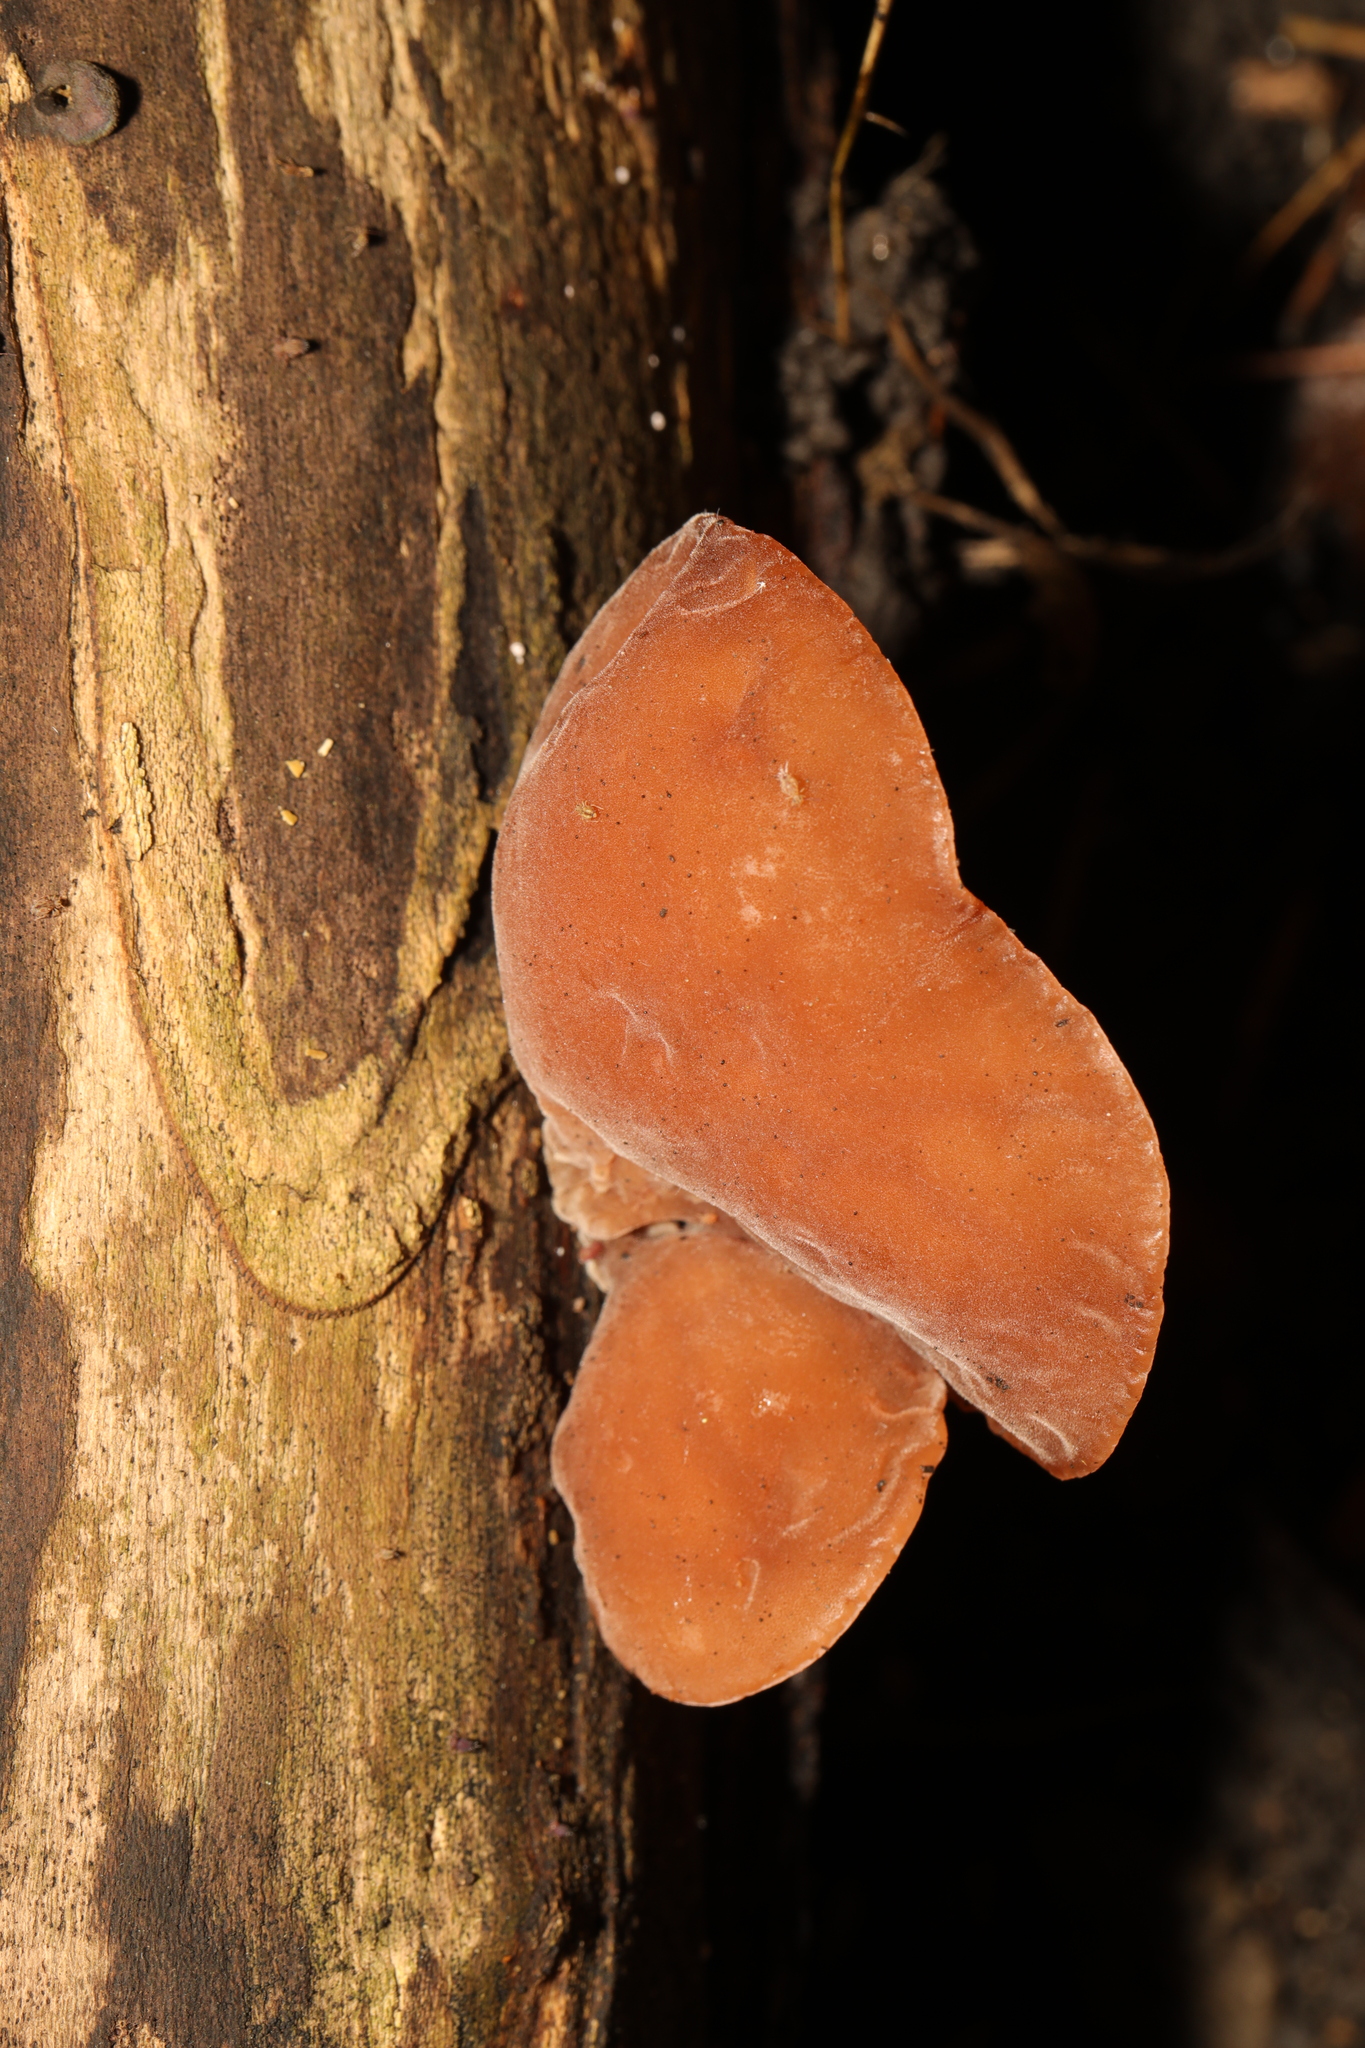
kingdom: Fungi
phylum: Basidiomycota
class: Agaricomycetes
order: Auriculariales
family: Auriculariaceae
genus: Auricularia
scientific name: Auricularia auricula-judae
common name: Jelly ear
